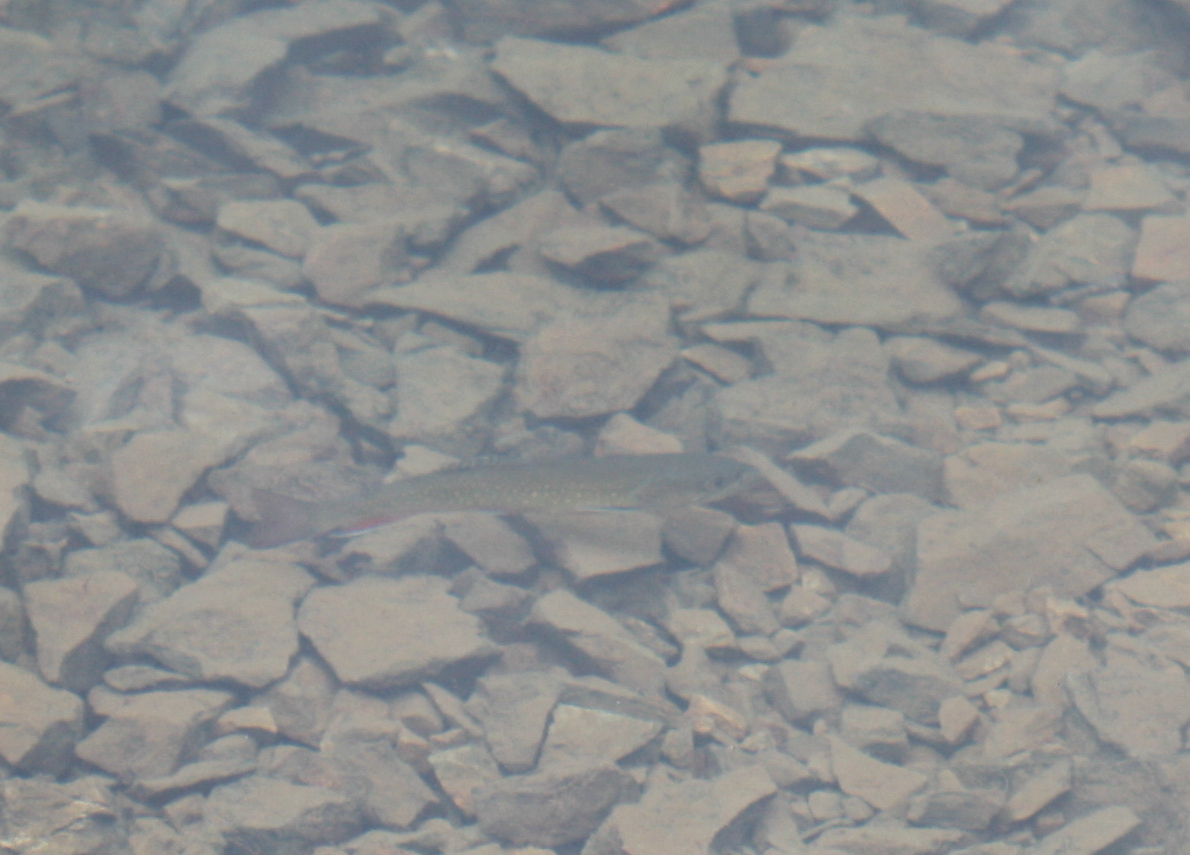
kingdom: Animalia
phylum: Chordata
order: Salmoniformes
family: Salmonidae
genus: Salvelinus
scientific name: Salvelinus fontinalis
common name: Brook trout
